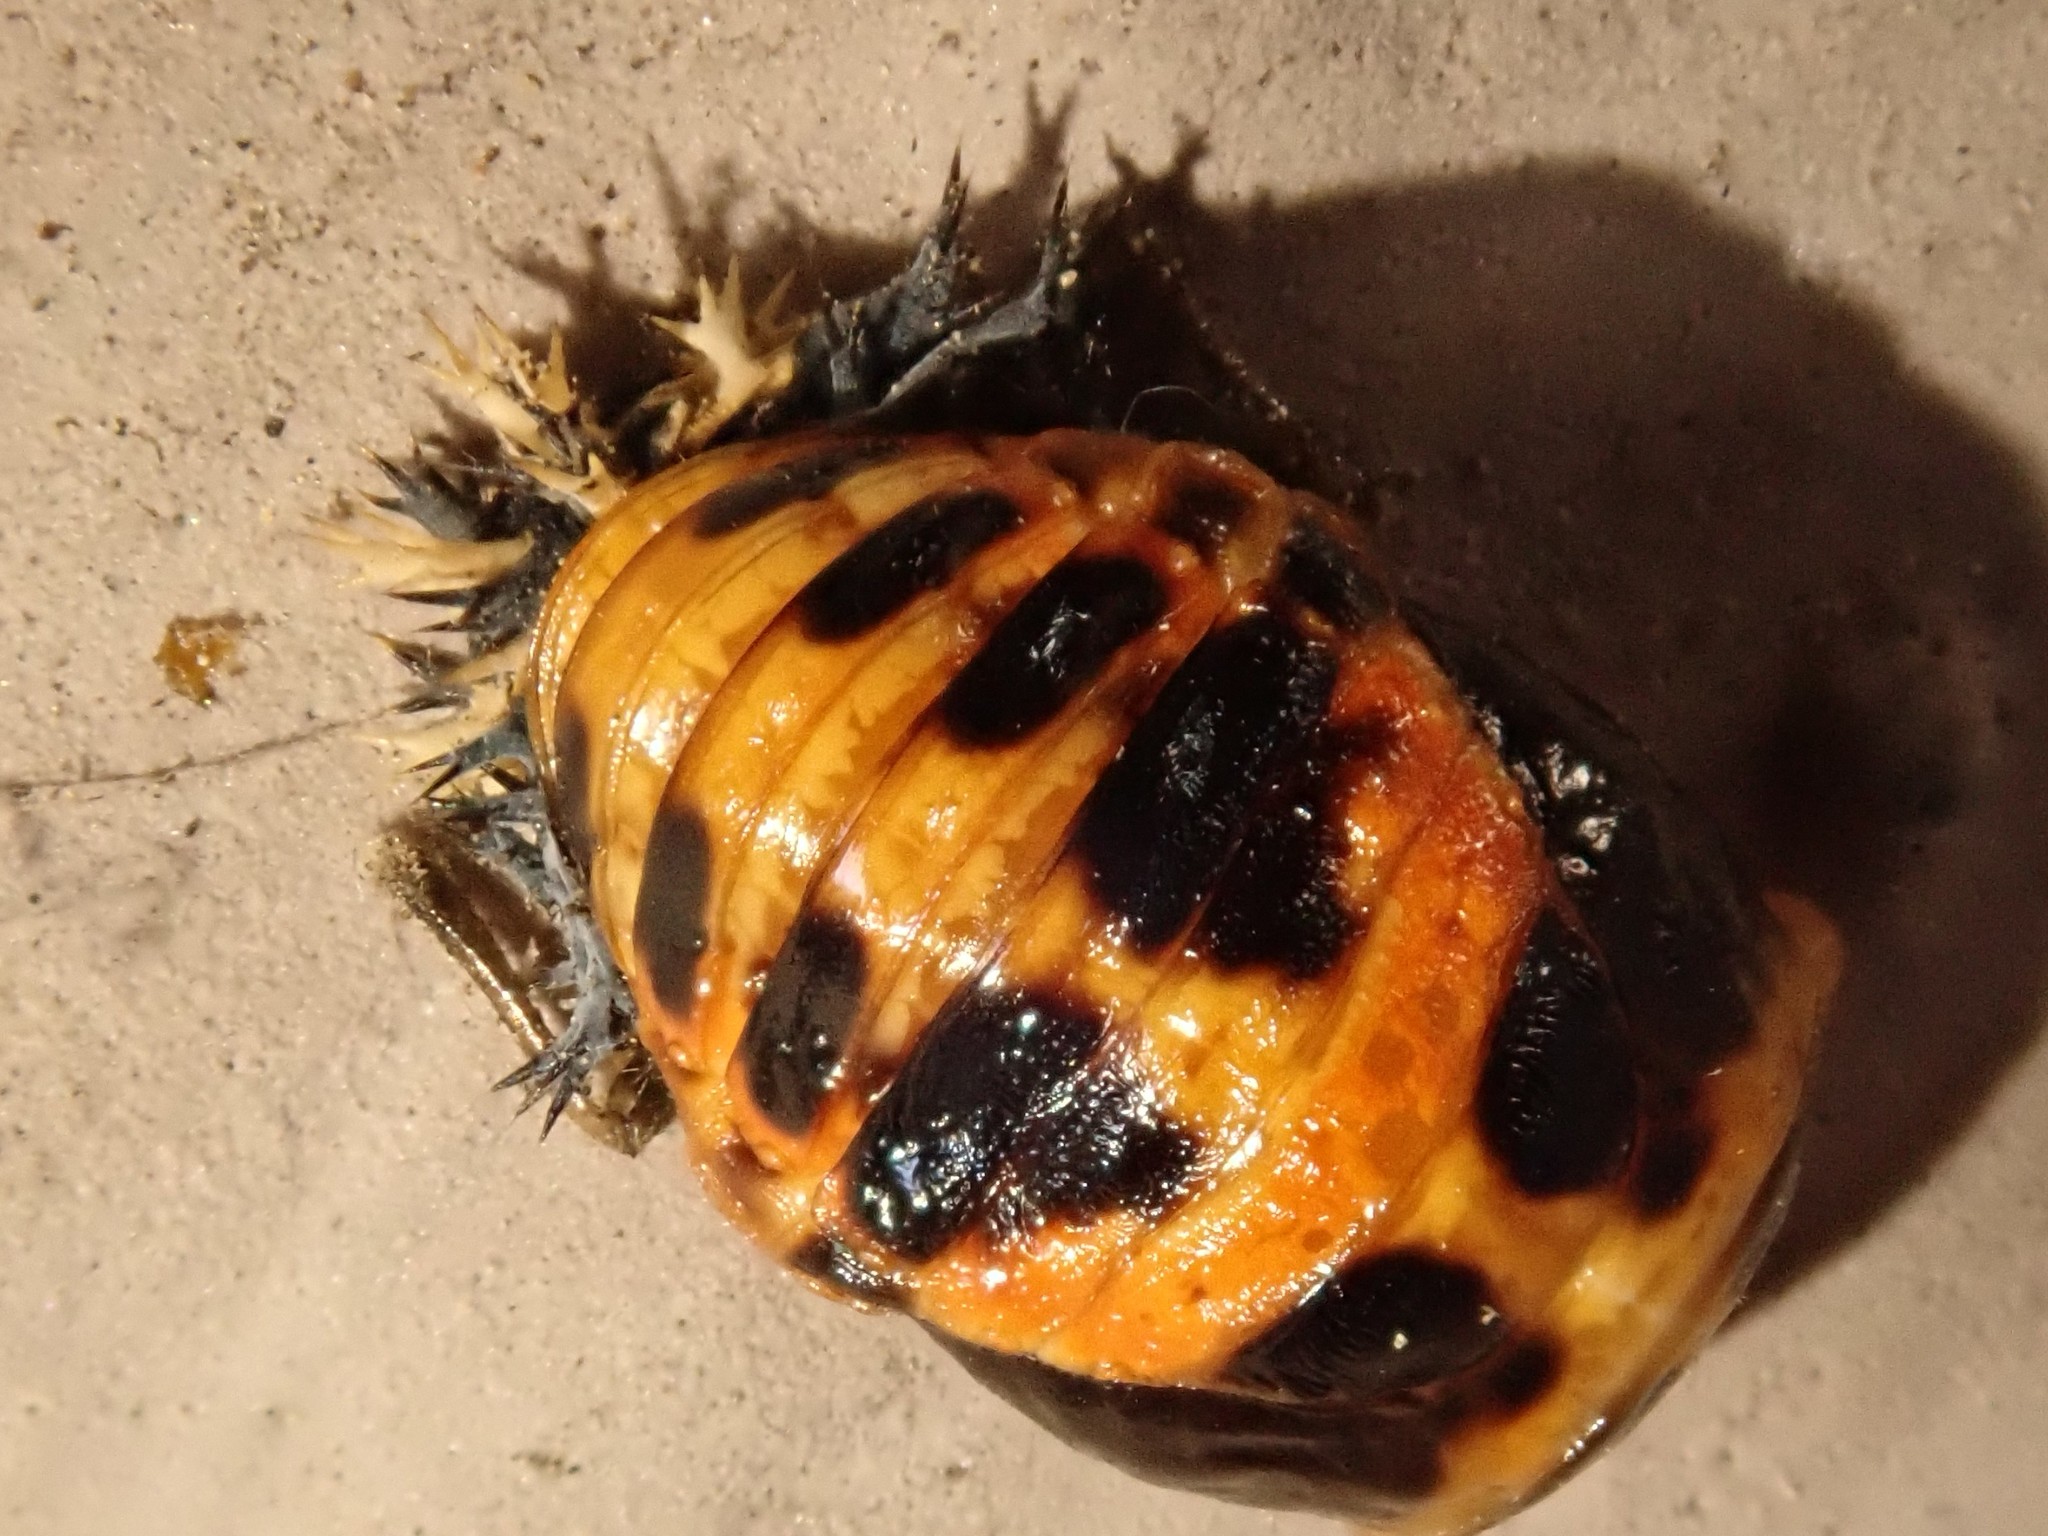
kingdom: Animalia
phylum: Arthropoda
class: Insecta
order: Coleoptera
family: Coccinellidae
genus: Harmonia
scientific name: Harmonia axyridis
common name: Harlequin ladybird
